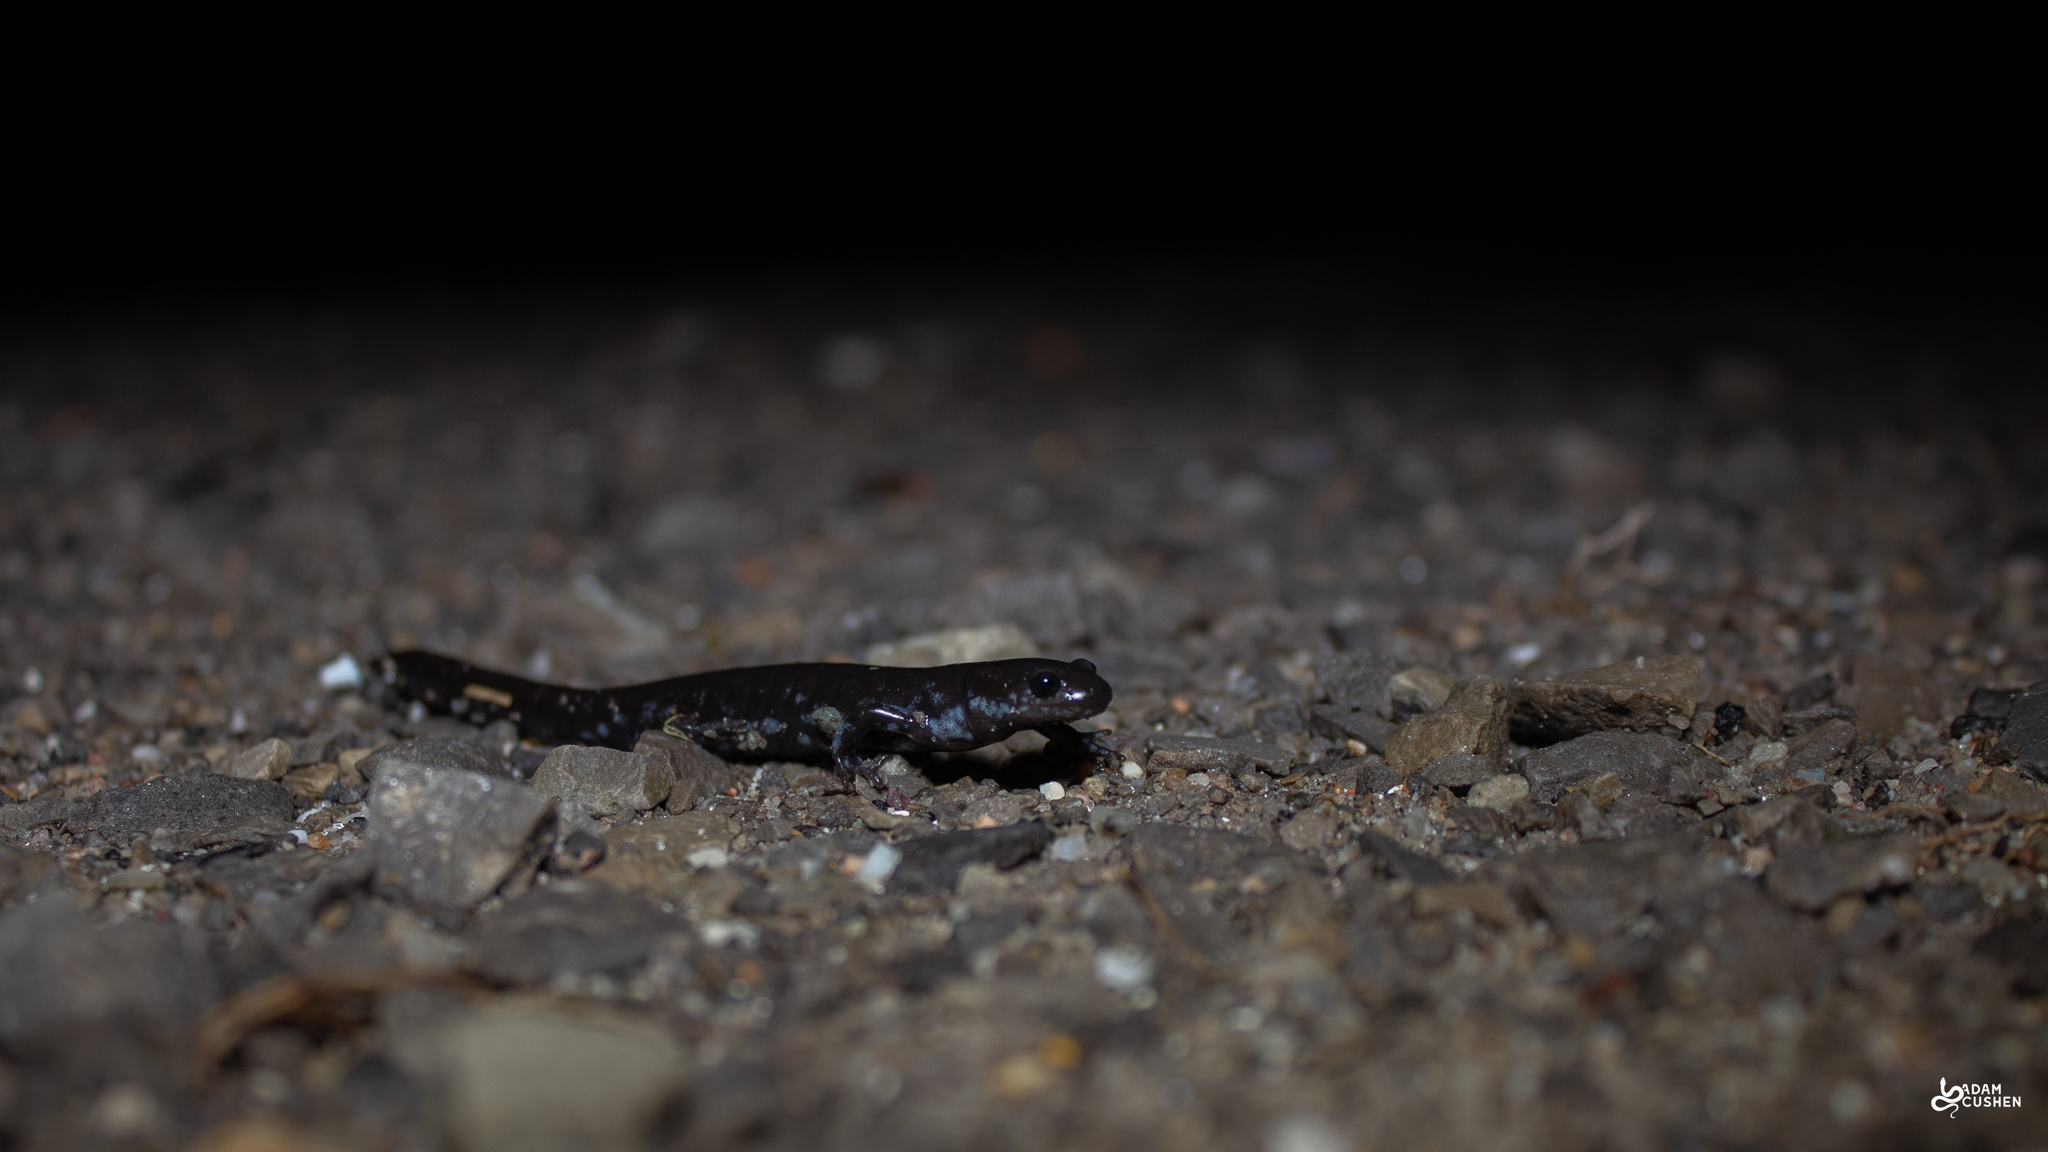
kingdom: Animalia
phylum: Chordata
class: Amphibia
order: Caudata
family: Ambystomatidae
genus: Ambystoma
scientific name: Ambystoma laterale
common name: Blue-spotted salamander
